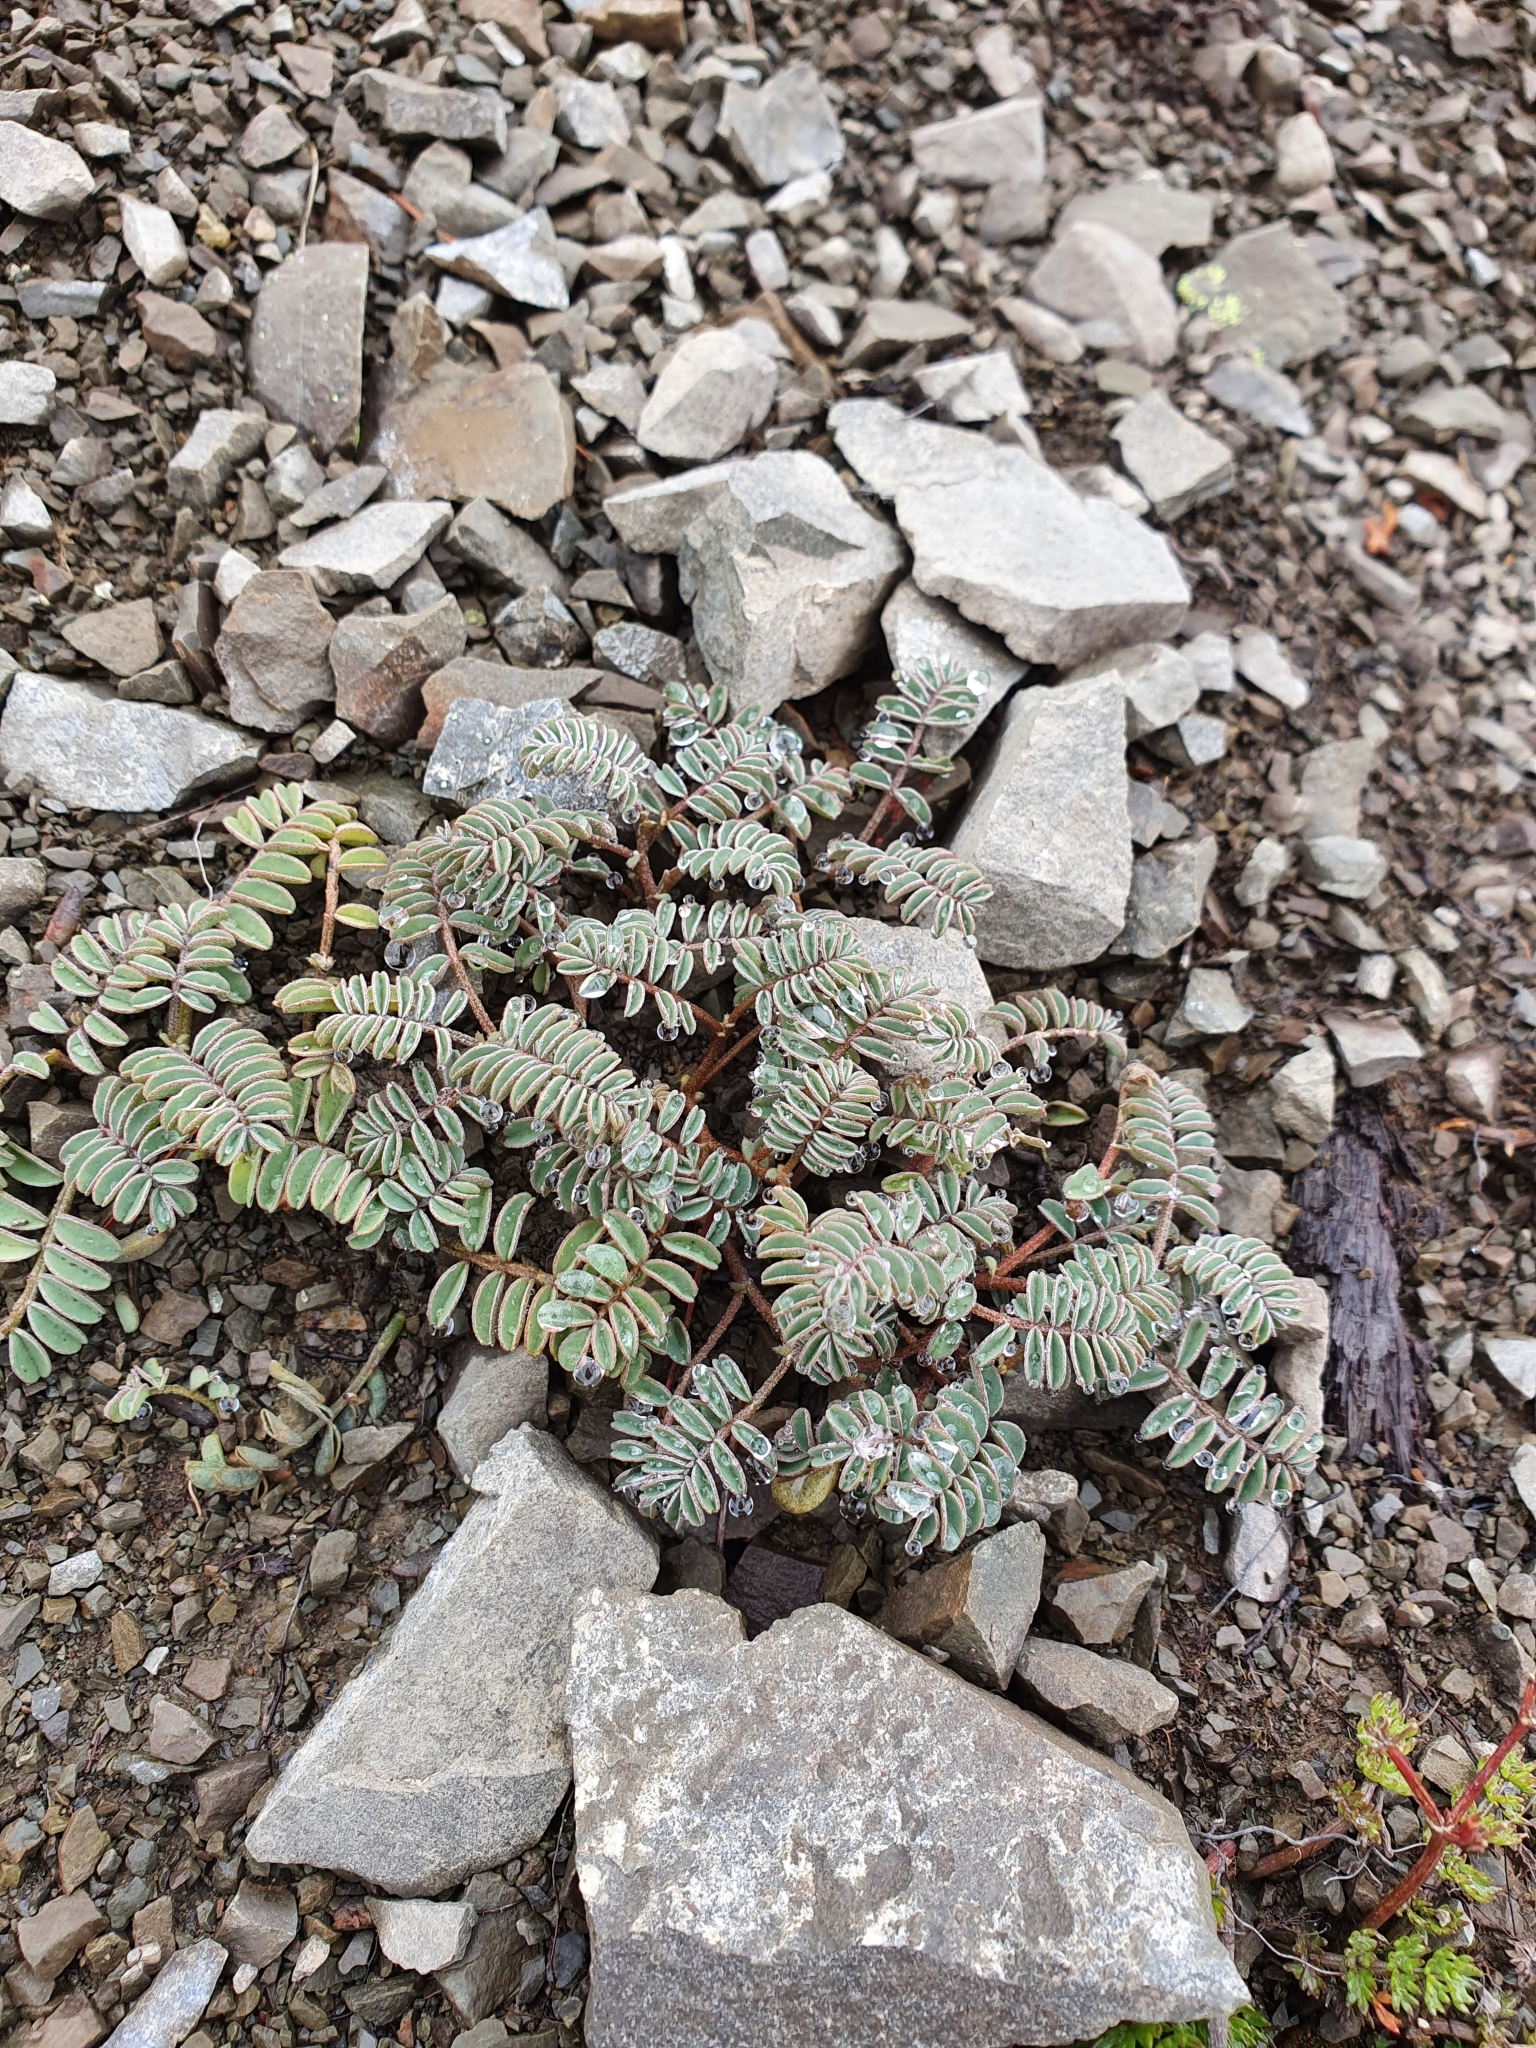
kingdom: Plantae
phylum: Tracheophyta
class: Magnoliopsida
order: Fabales
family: Fabaceae
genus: Montigena
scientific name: Montigena novae-zelandiae
